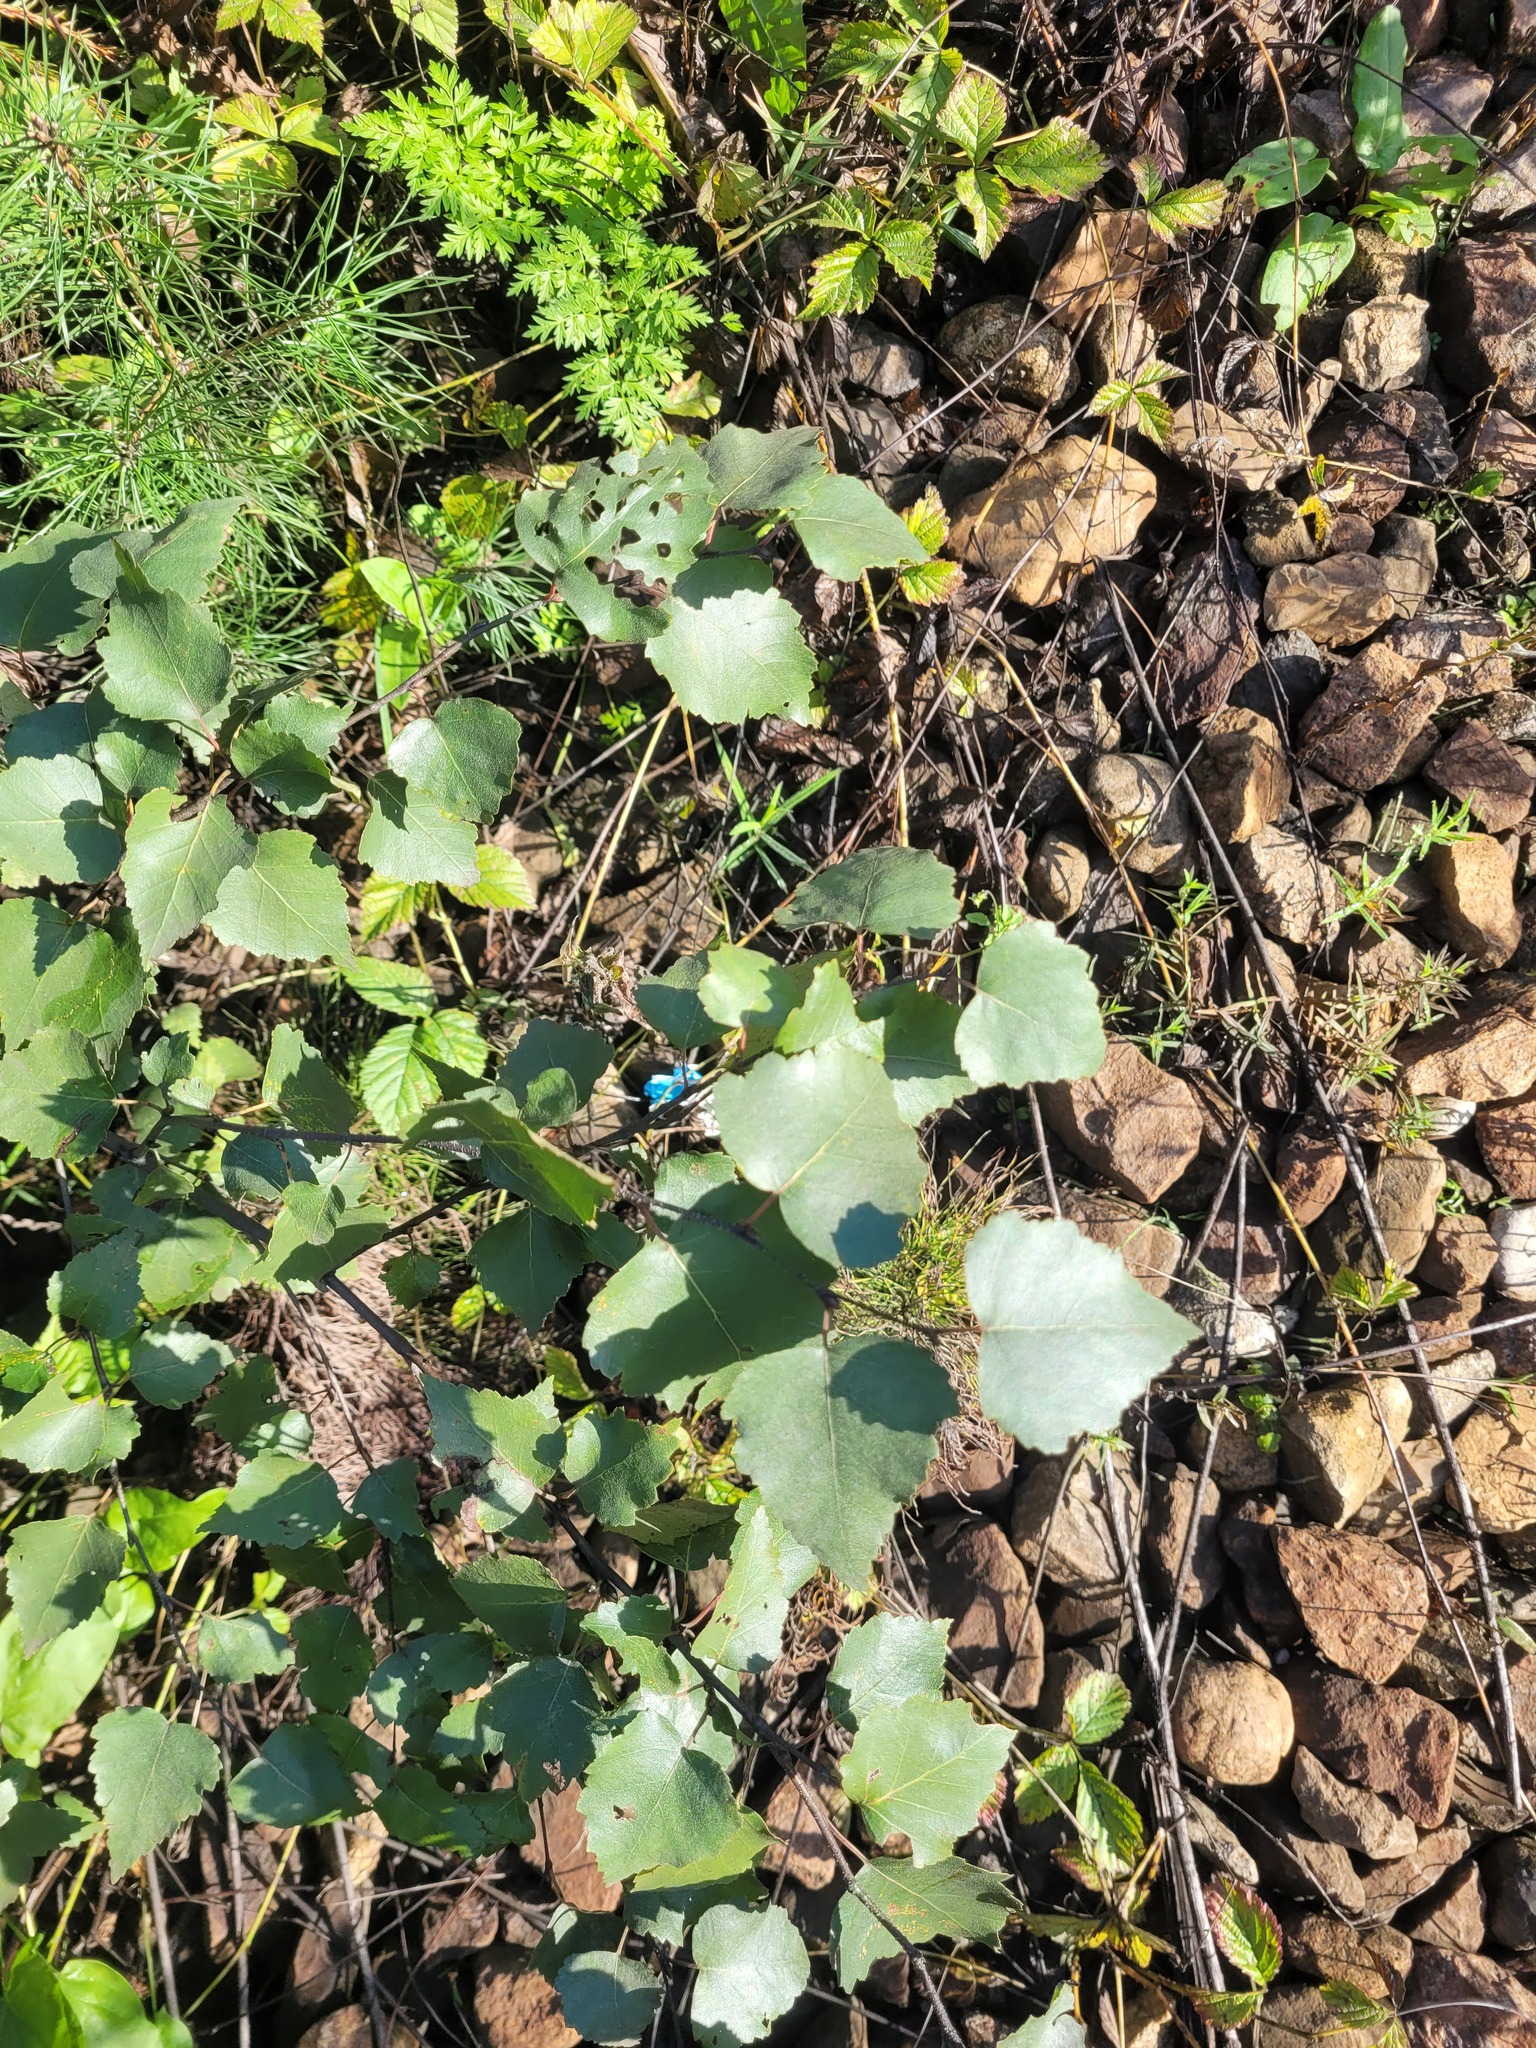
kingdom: Plantae
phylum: Tracheophyta
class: Magnoliopsida
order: Fagales
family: Betulaceae
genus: Betula
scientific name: Betula pendula
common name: Silver birch
